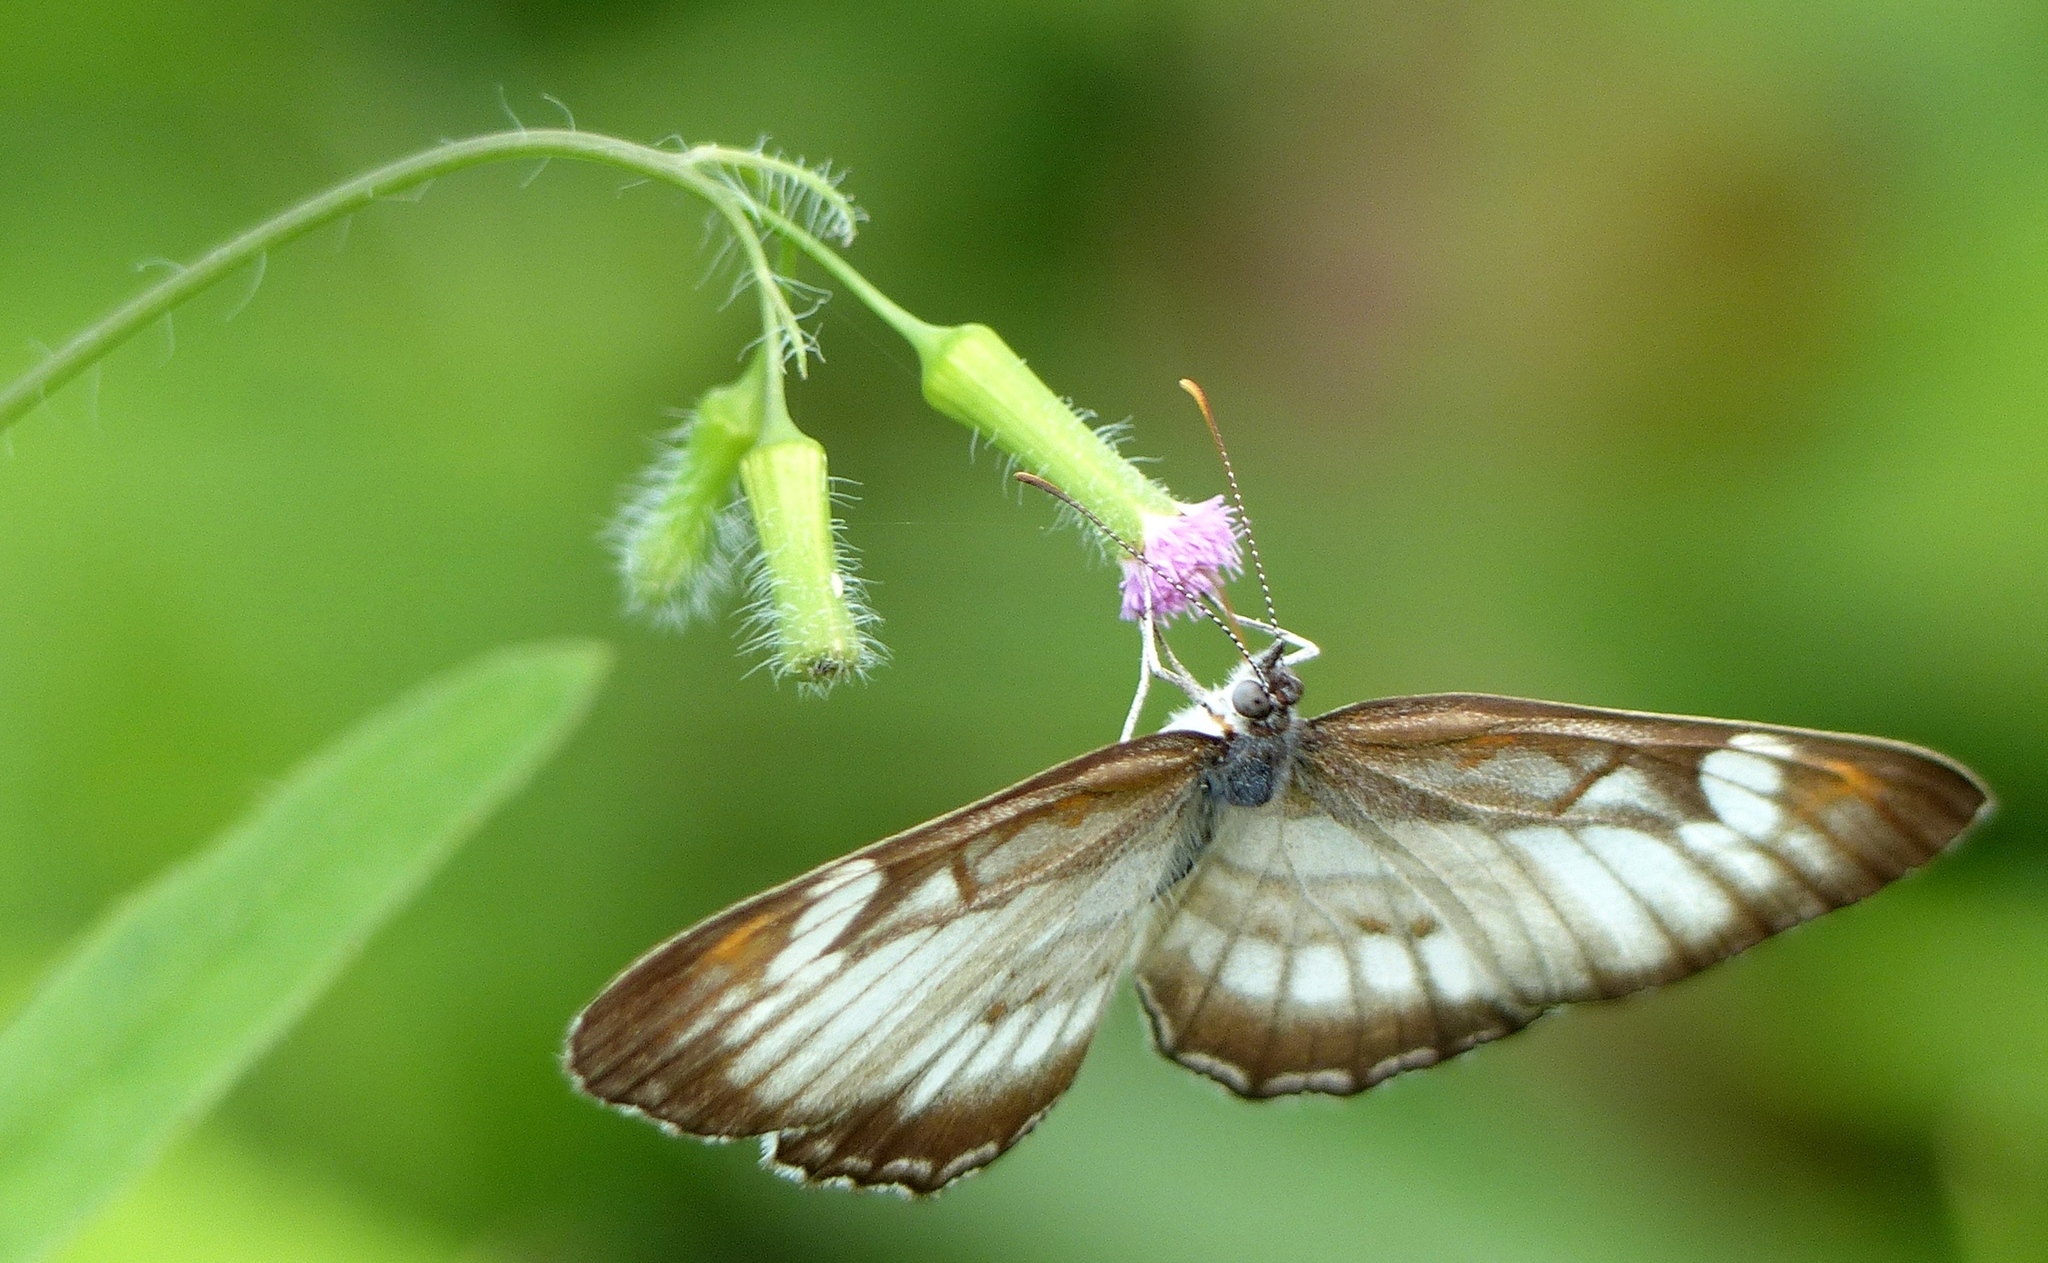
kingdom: Animalia
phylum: Arthropoda
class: Insecta
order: Lepidoptera
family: Nymphalidae
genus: Mestra
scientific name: Mestra hersilia
